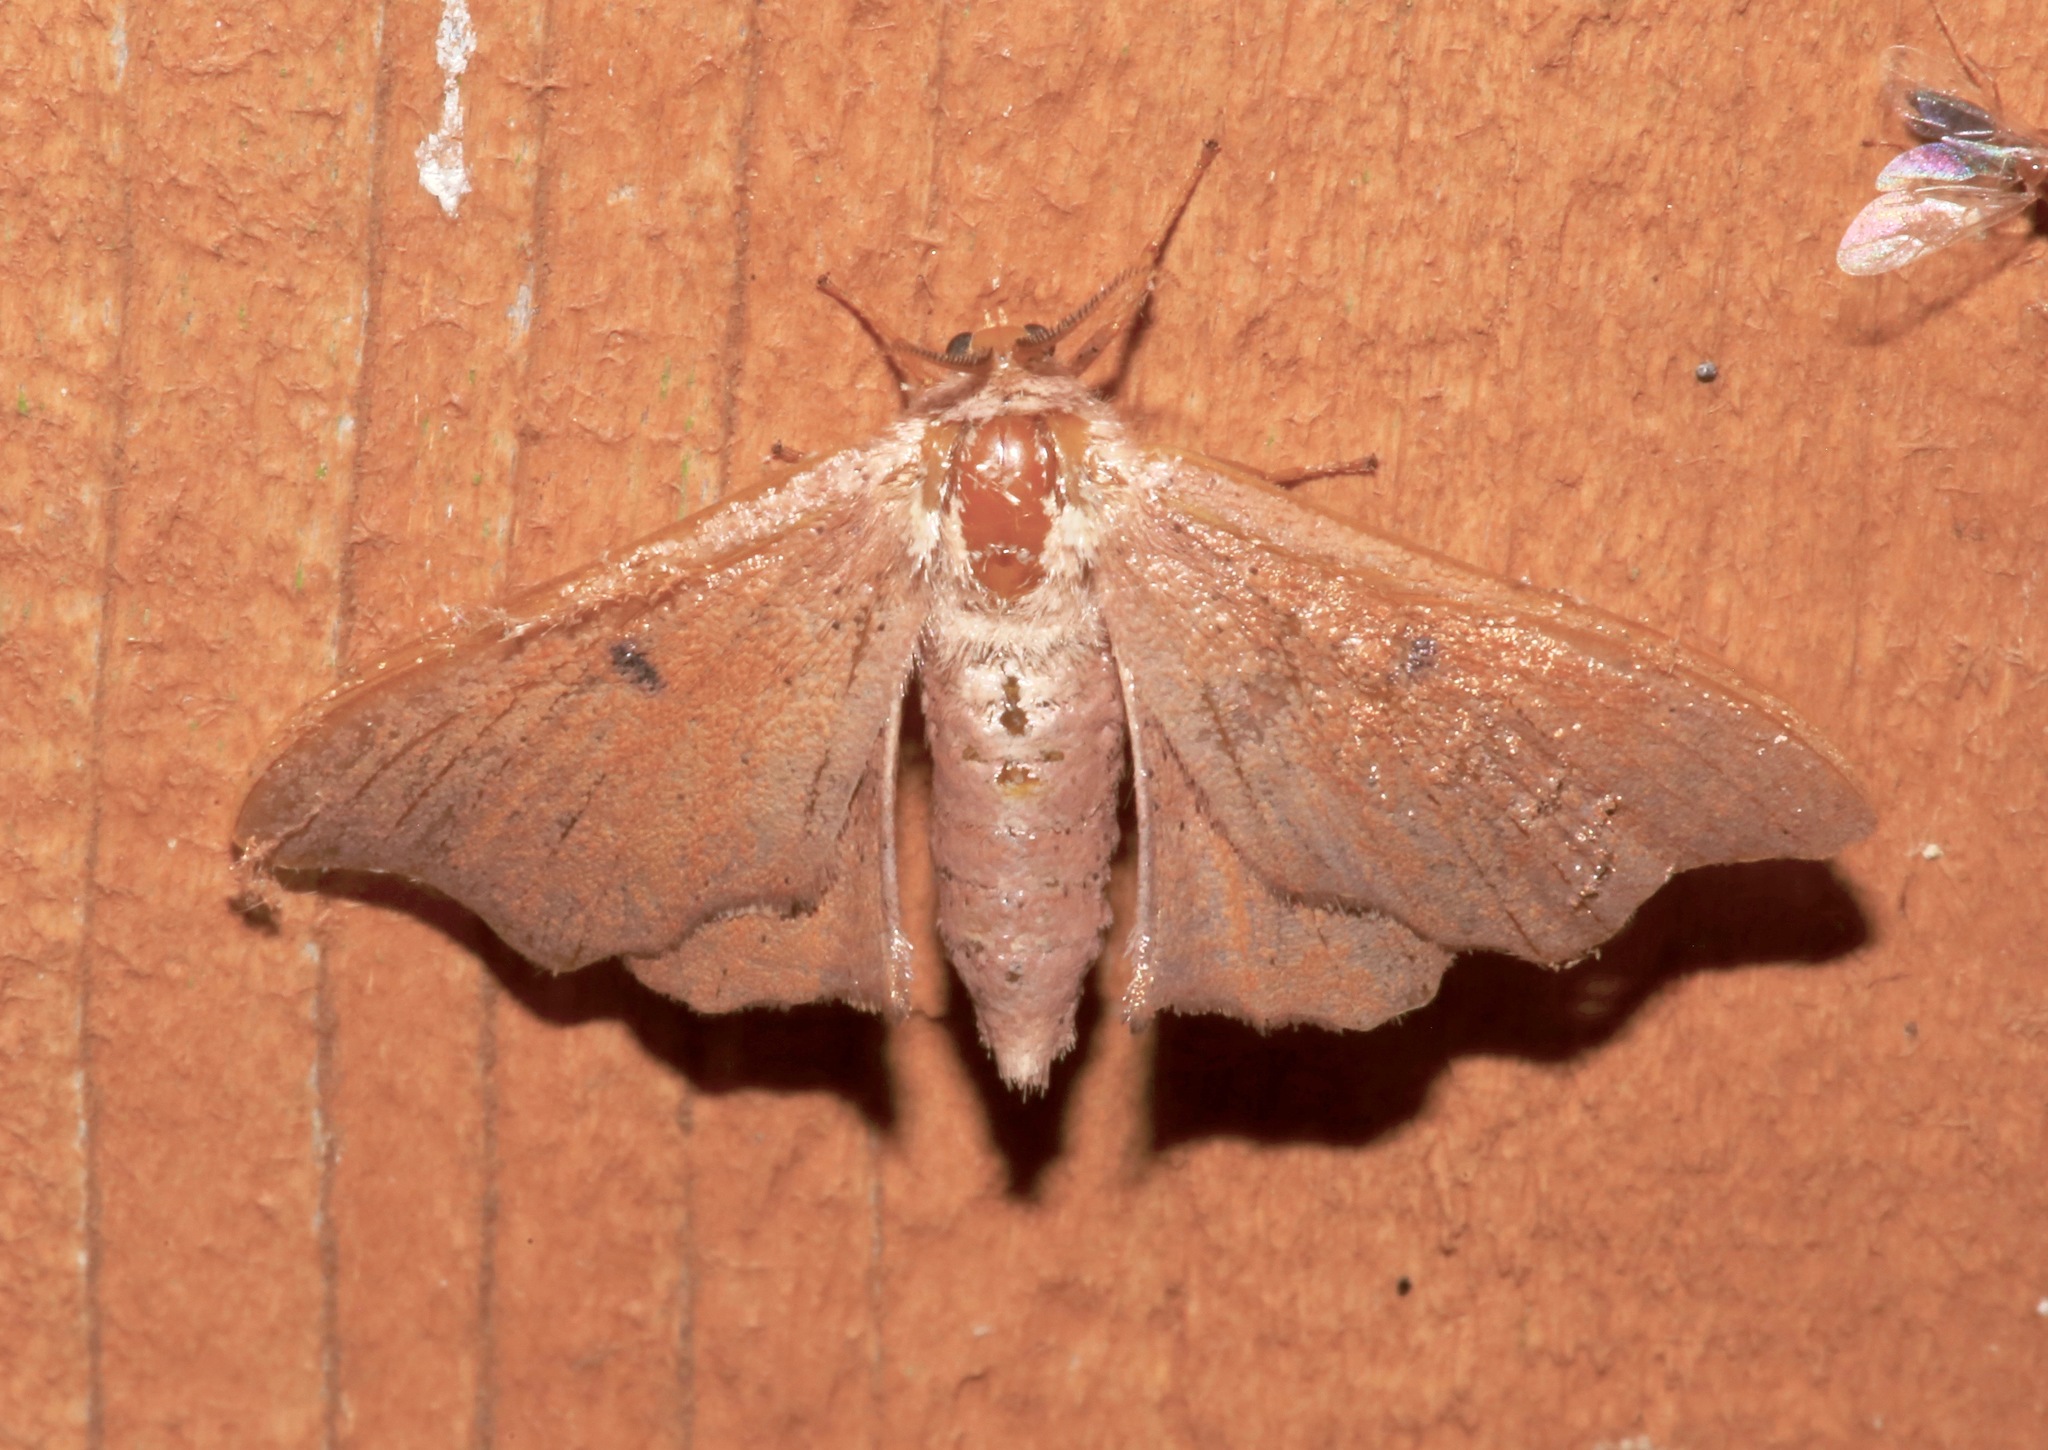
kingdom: Animalia
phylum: Arthropoda
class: Insecta
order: Lepidoptera
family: Mimallonidae
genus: Lacosoma
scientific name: Lacosoma chiridota
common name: Scalloped sack-bearer moth
